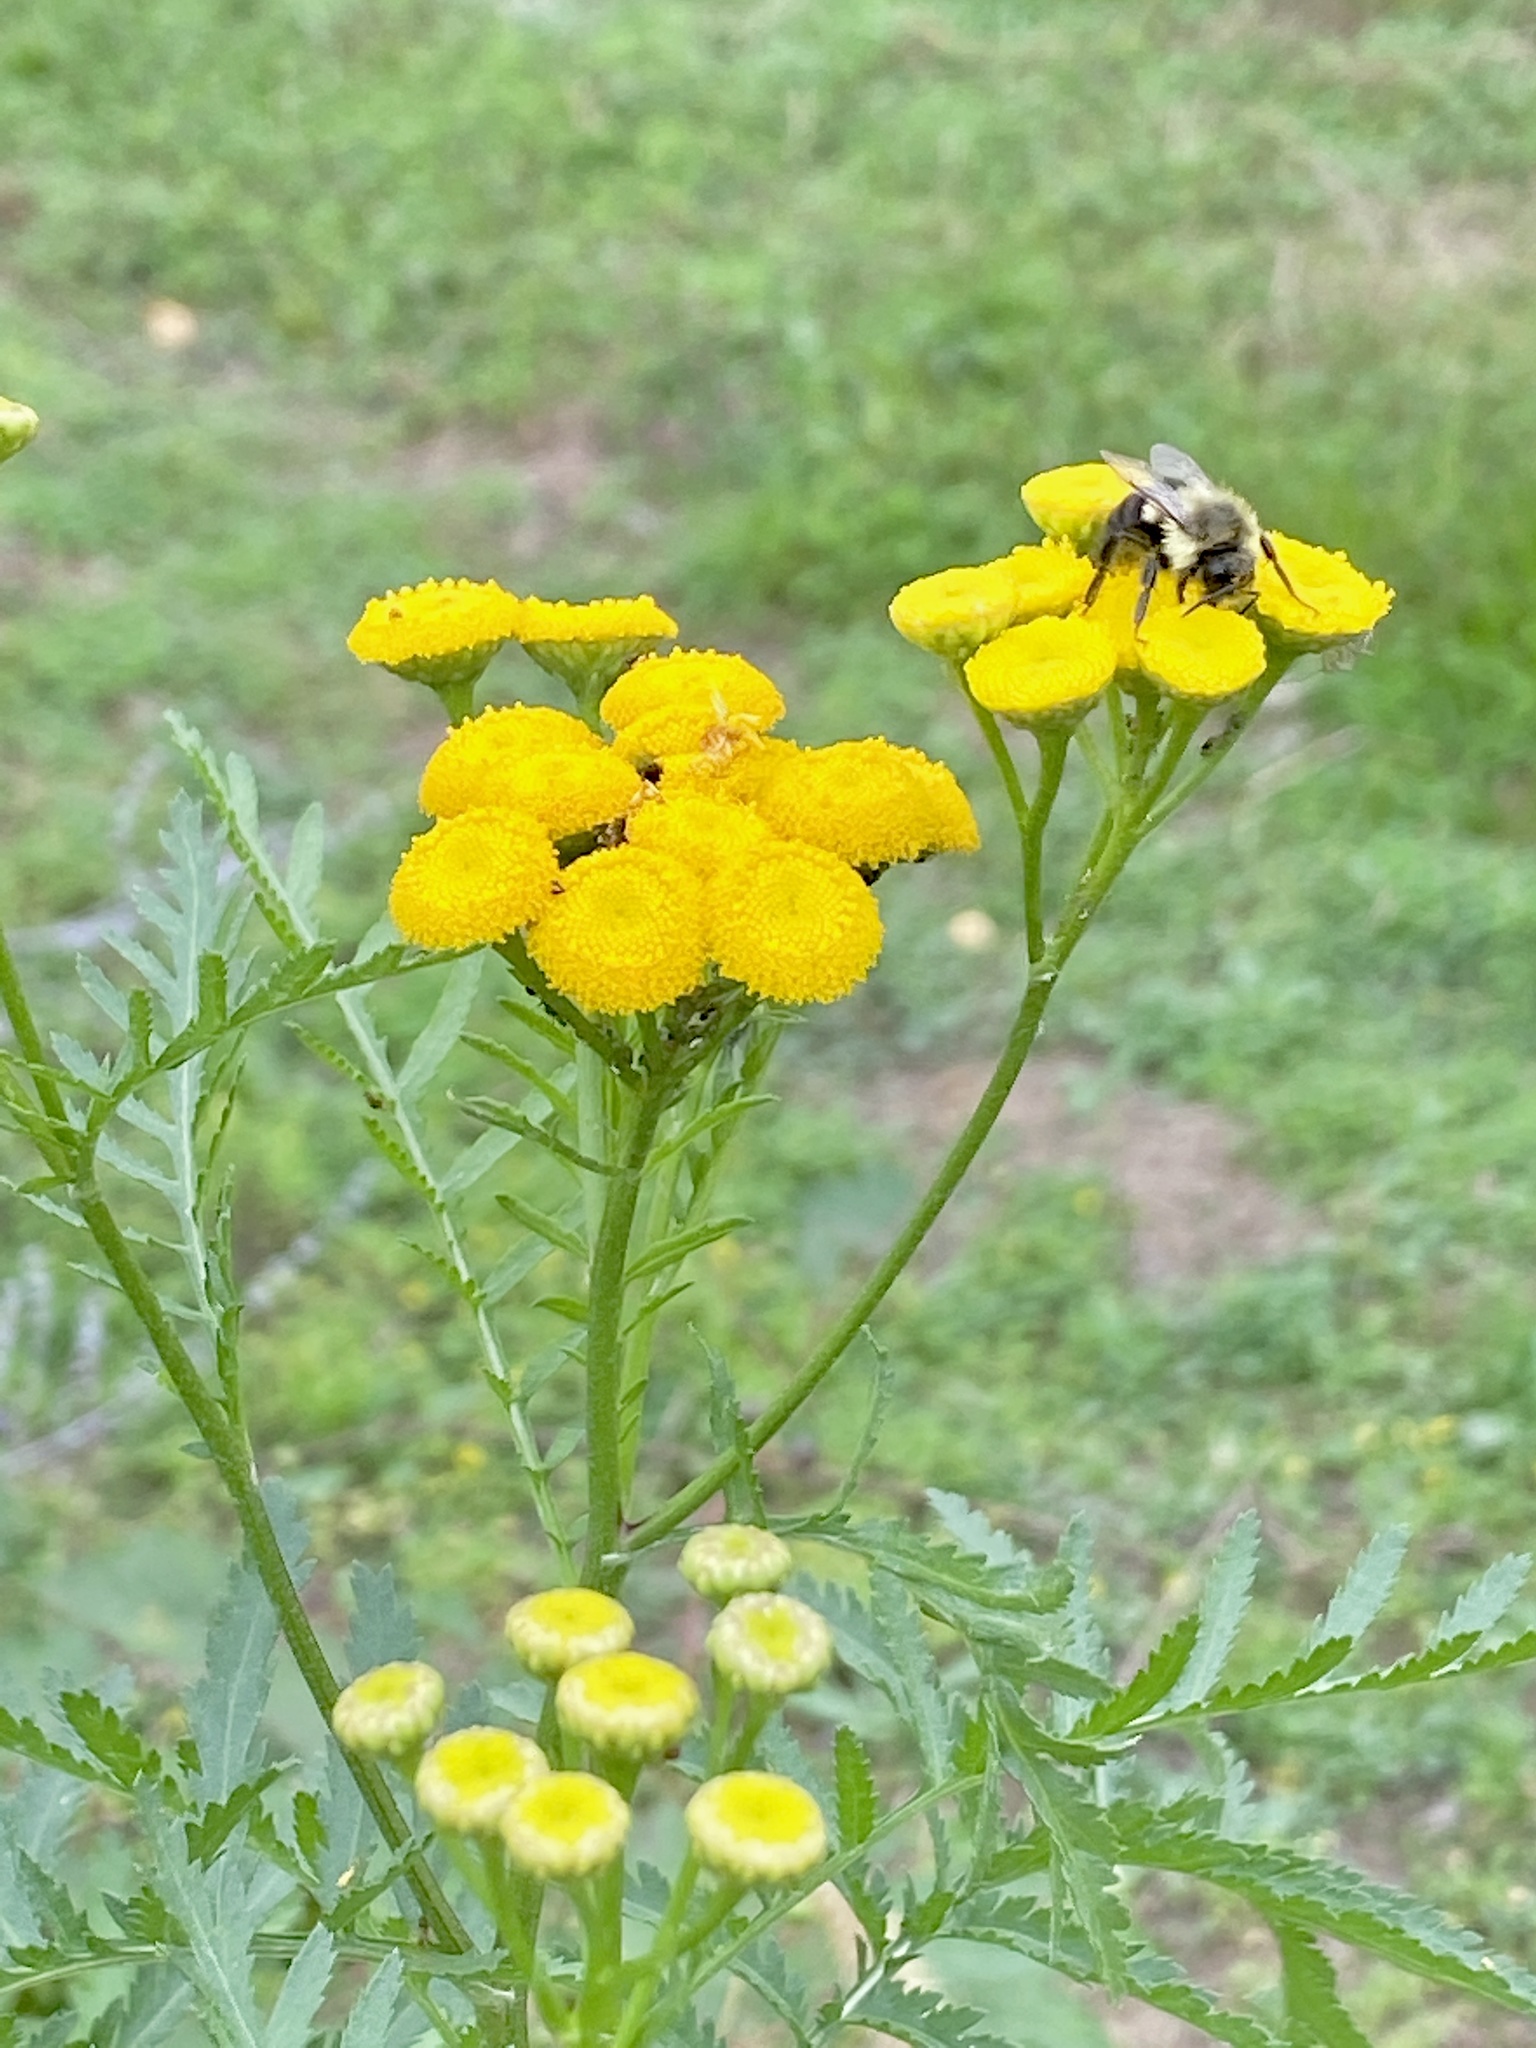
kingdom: Plantae
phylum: Tracheophyta
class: Magnoliopsida
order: Asterales
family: Asteraceae
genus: Tanacetum
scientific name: Tanacetum vulgare
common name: Common tansy
